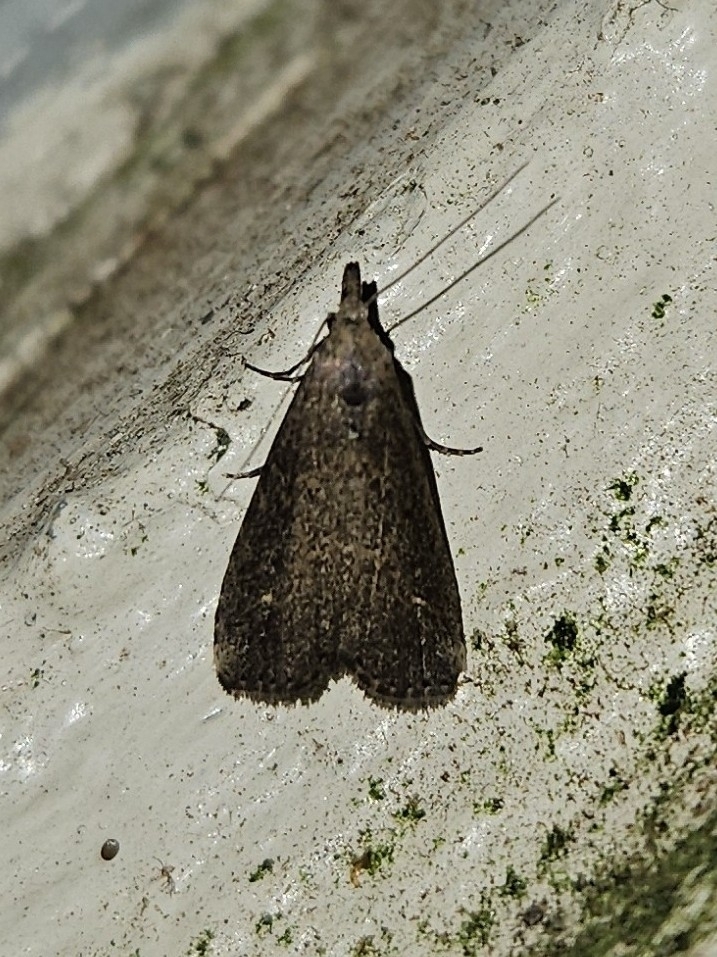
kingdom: Animalia
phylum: Arthropoda
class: Insecta
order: Lepidoptera
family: Erebidae
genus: Schrankia
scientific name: Schrankia costaestrigalis
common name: Pinion-streaked snout
